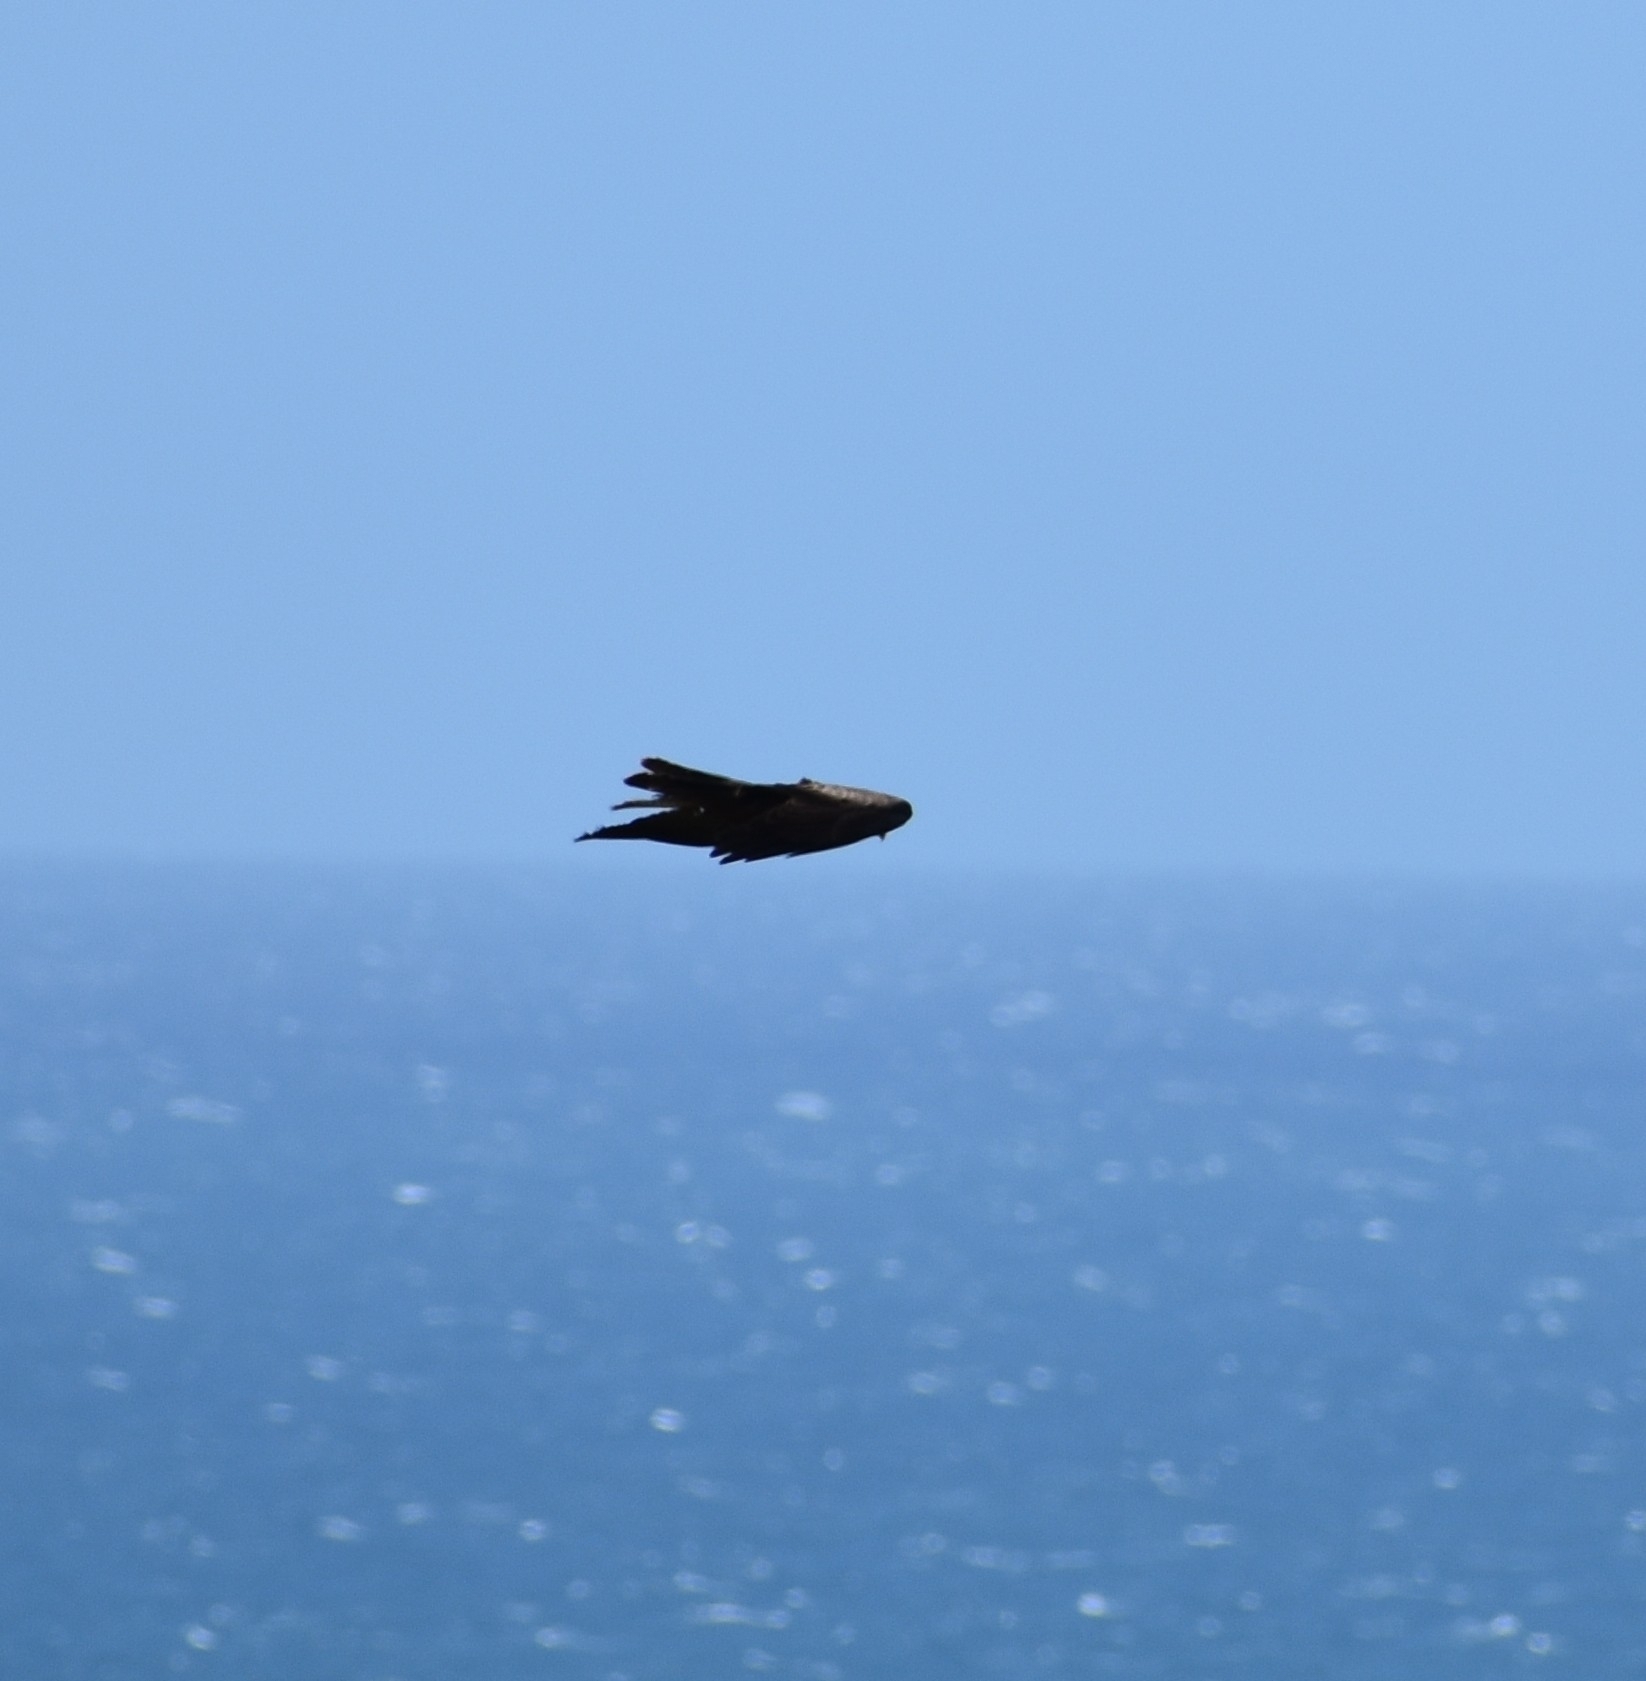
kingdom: Animalia
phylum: Chordata
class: Aves
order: Accipitriformes
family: Accipitridae
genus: Milvus
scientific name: Milvus migrans
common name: Black kite
